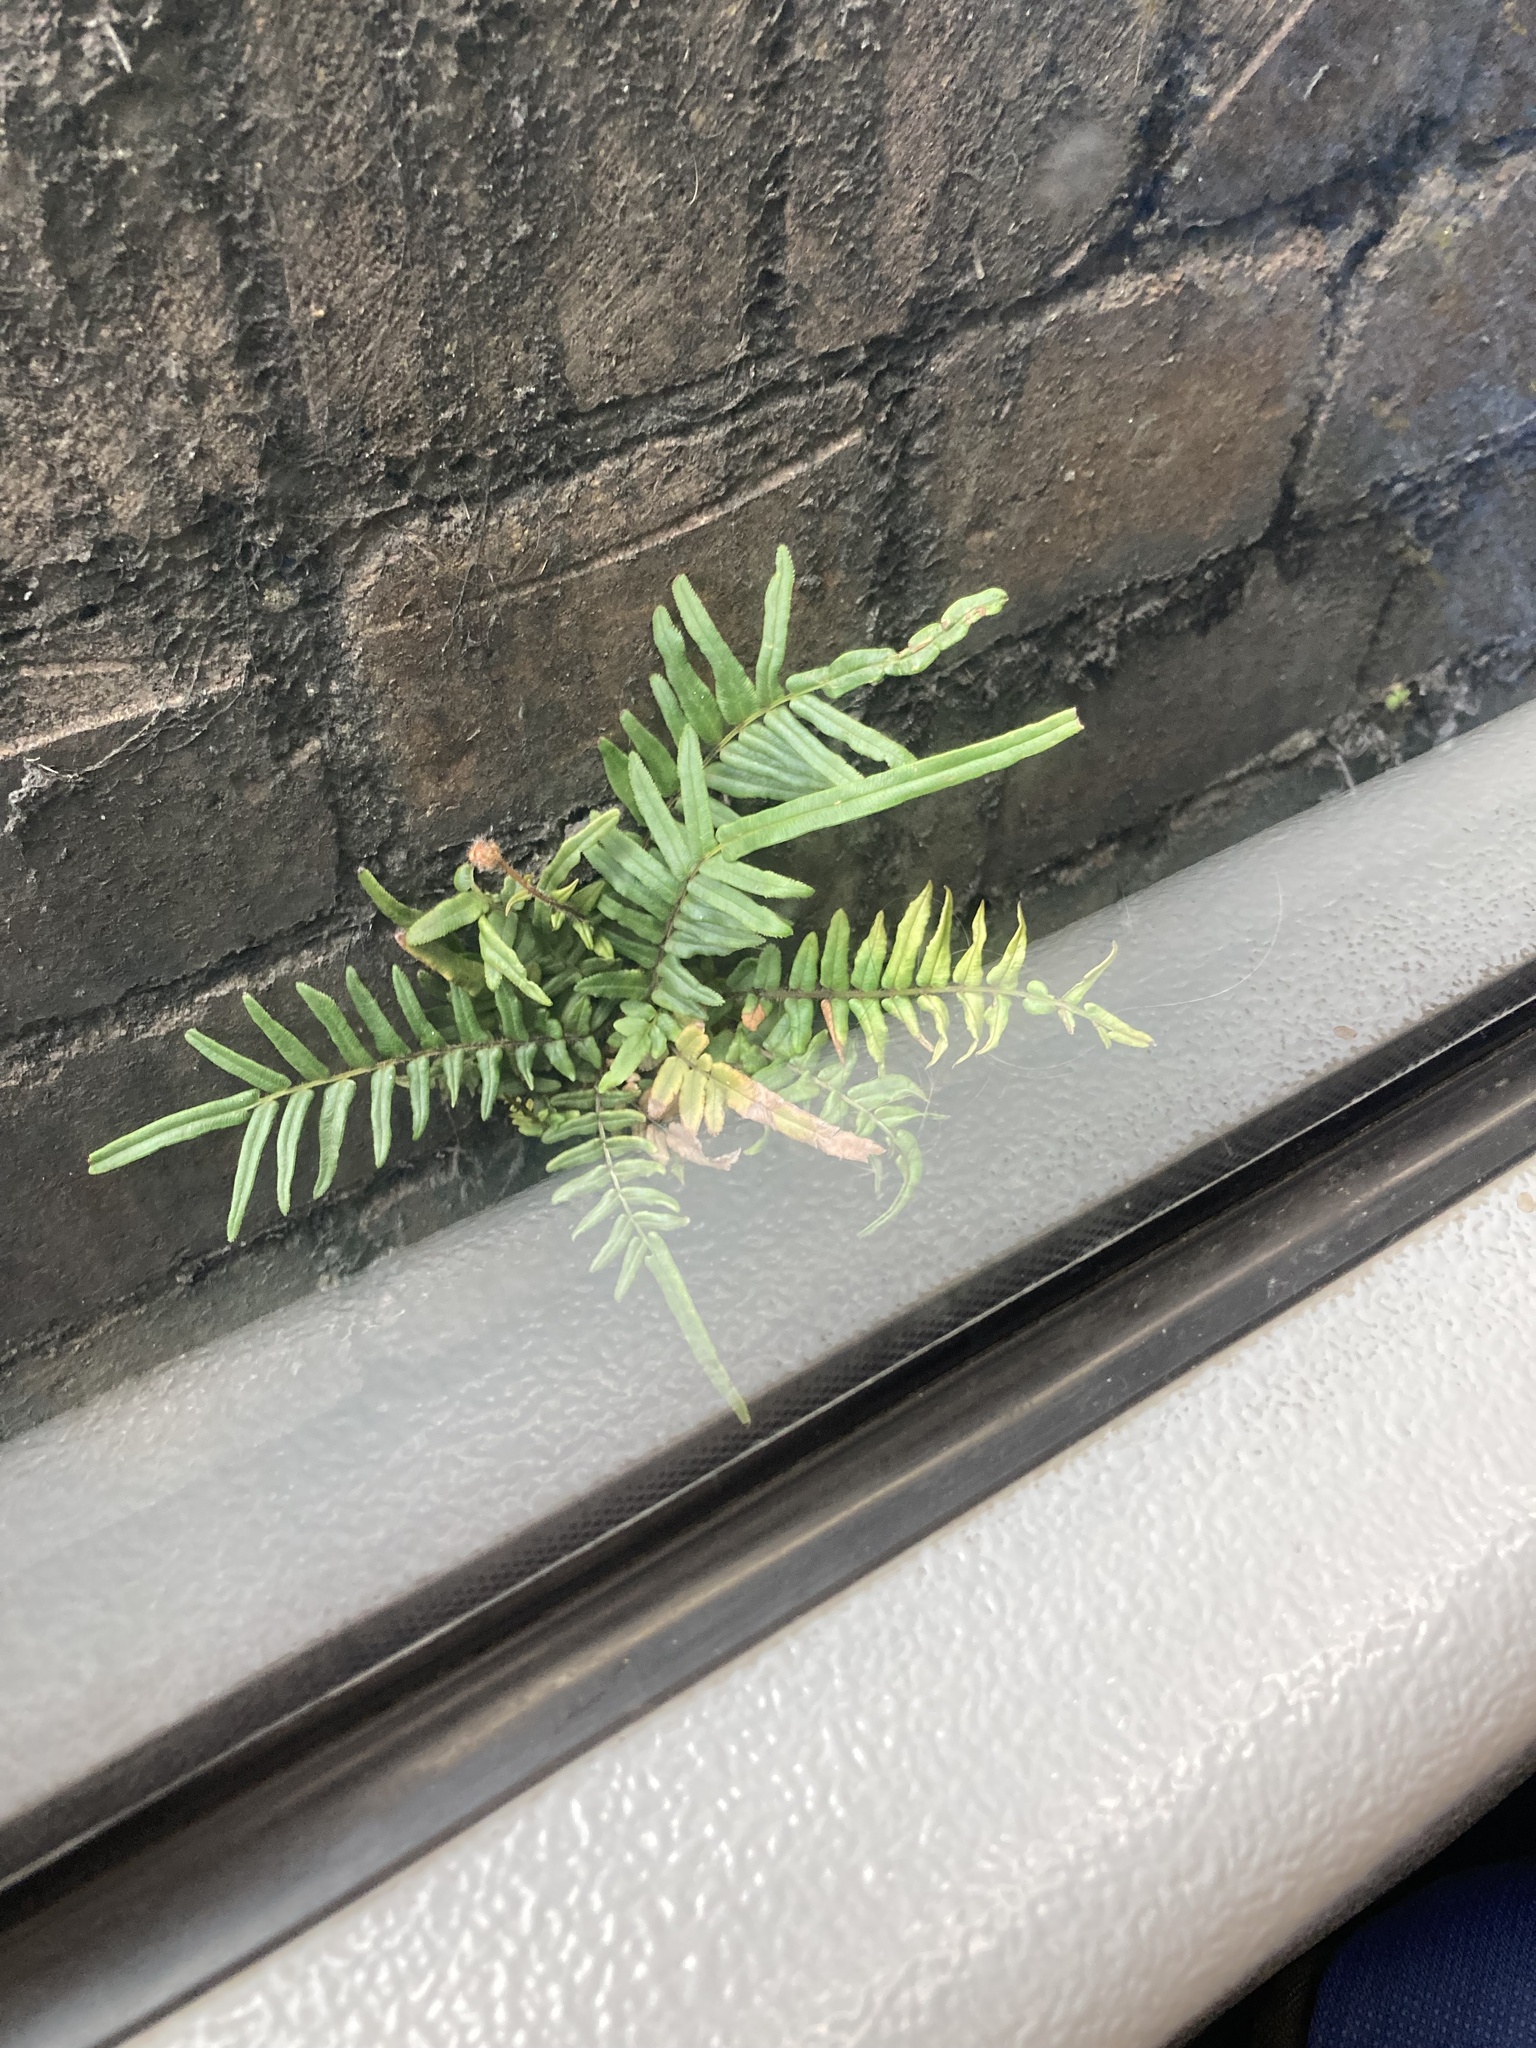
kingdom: Plantae
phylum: Tracheophyta
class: Polypodiopsida
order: Polypodiales
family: Pteridaceae
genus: Pteris
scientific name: Pteris vittata
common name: Ladder brake
